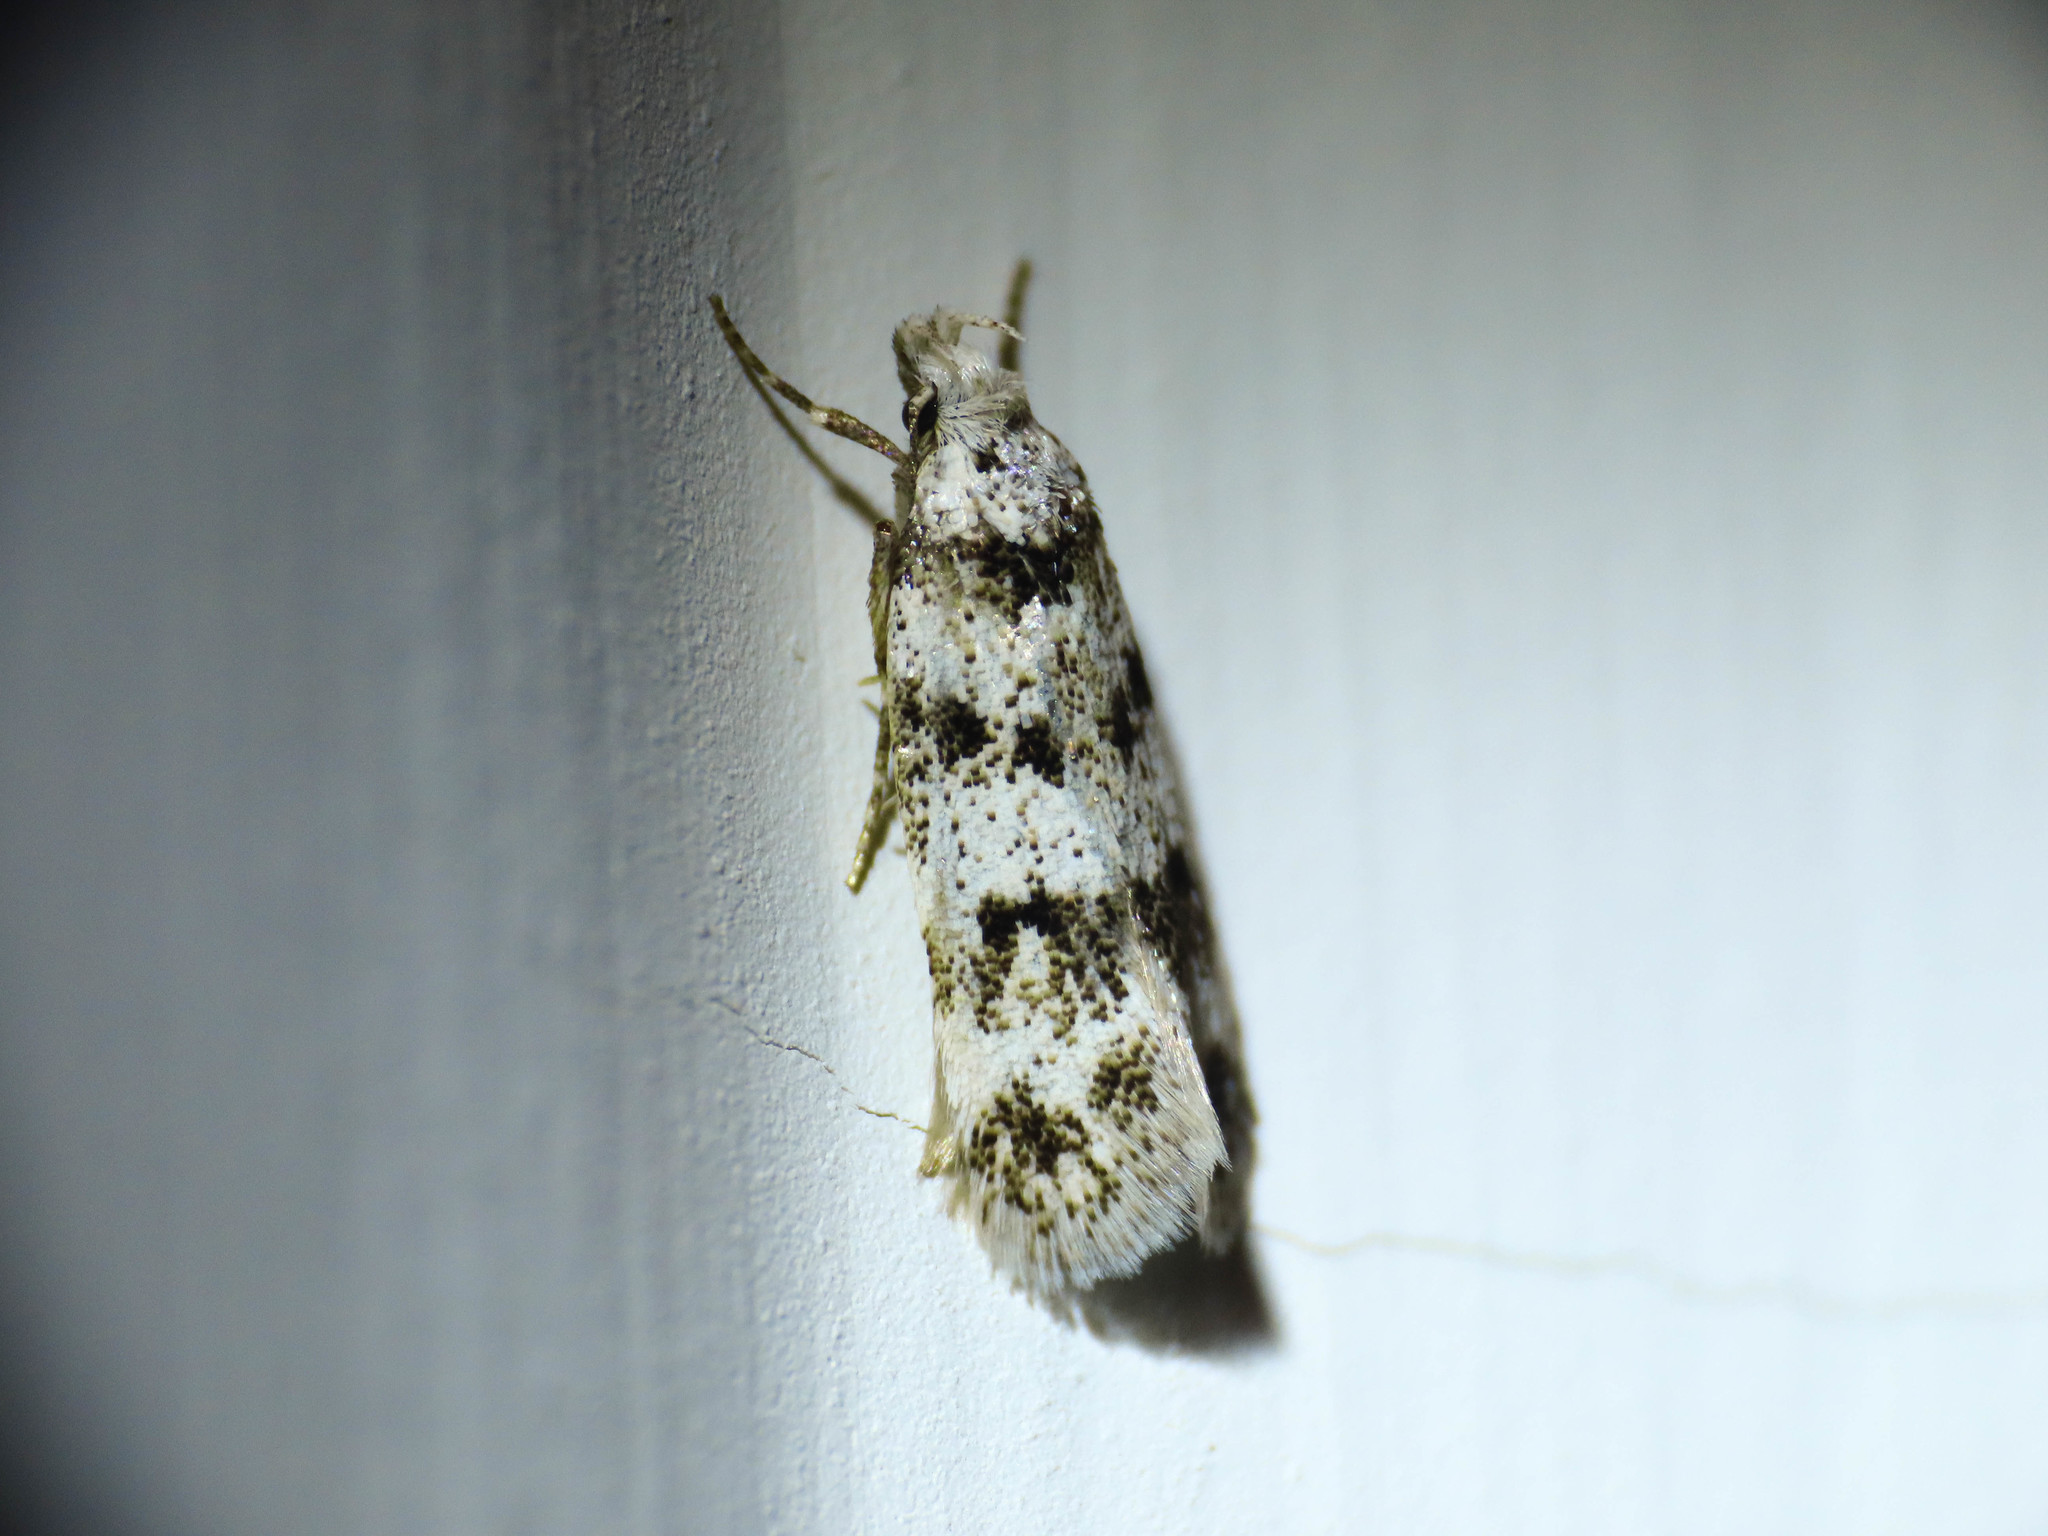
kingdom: Animalia
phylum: Arthropoda
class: Insecta
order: Lepidoptera
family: Gelechiidae
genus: Pseudotelphusa
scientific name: Pseudotelphusa scalella
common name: Black-spotted groundling
